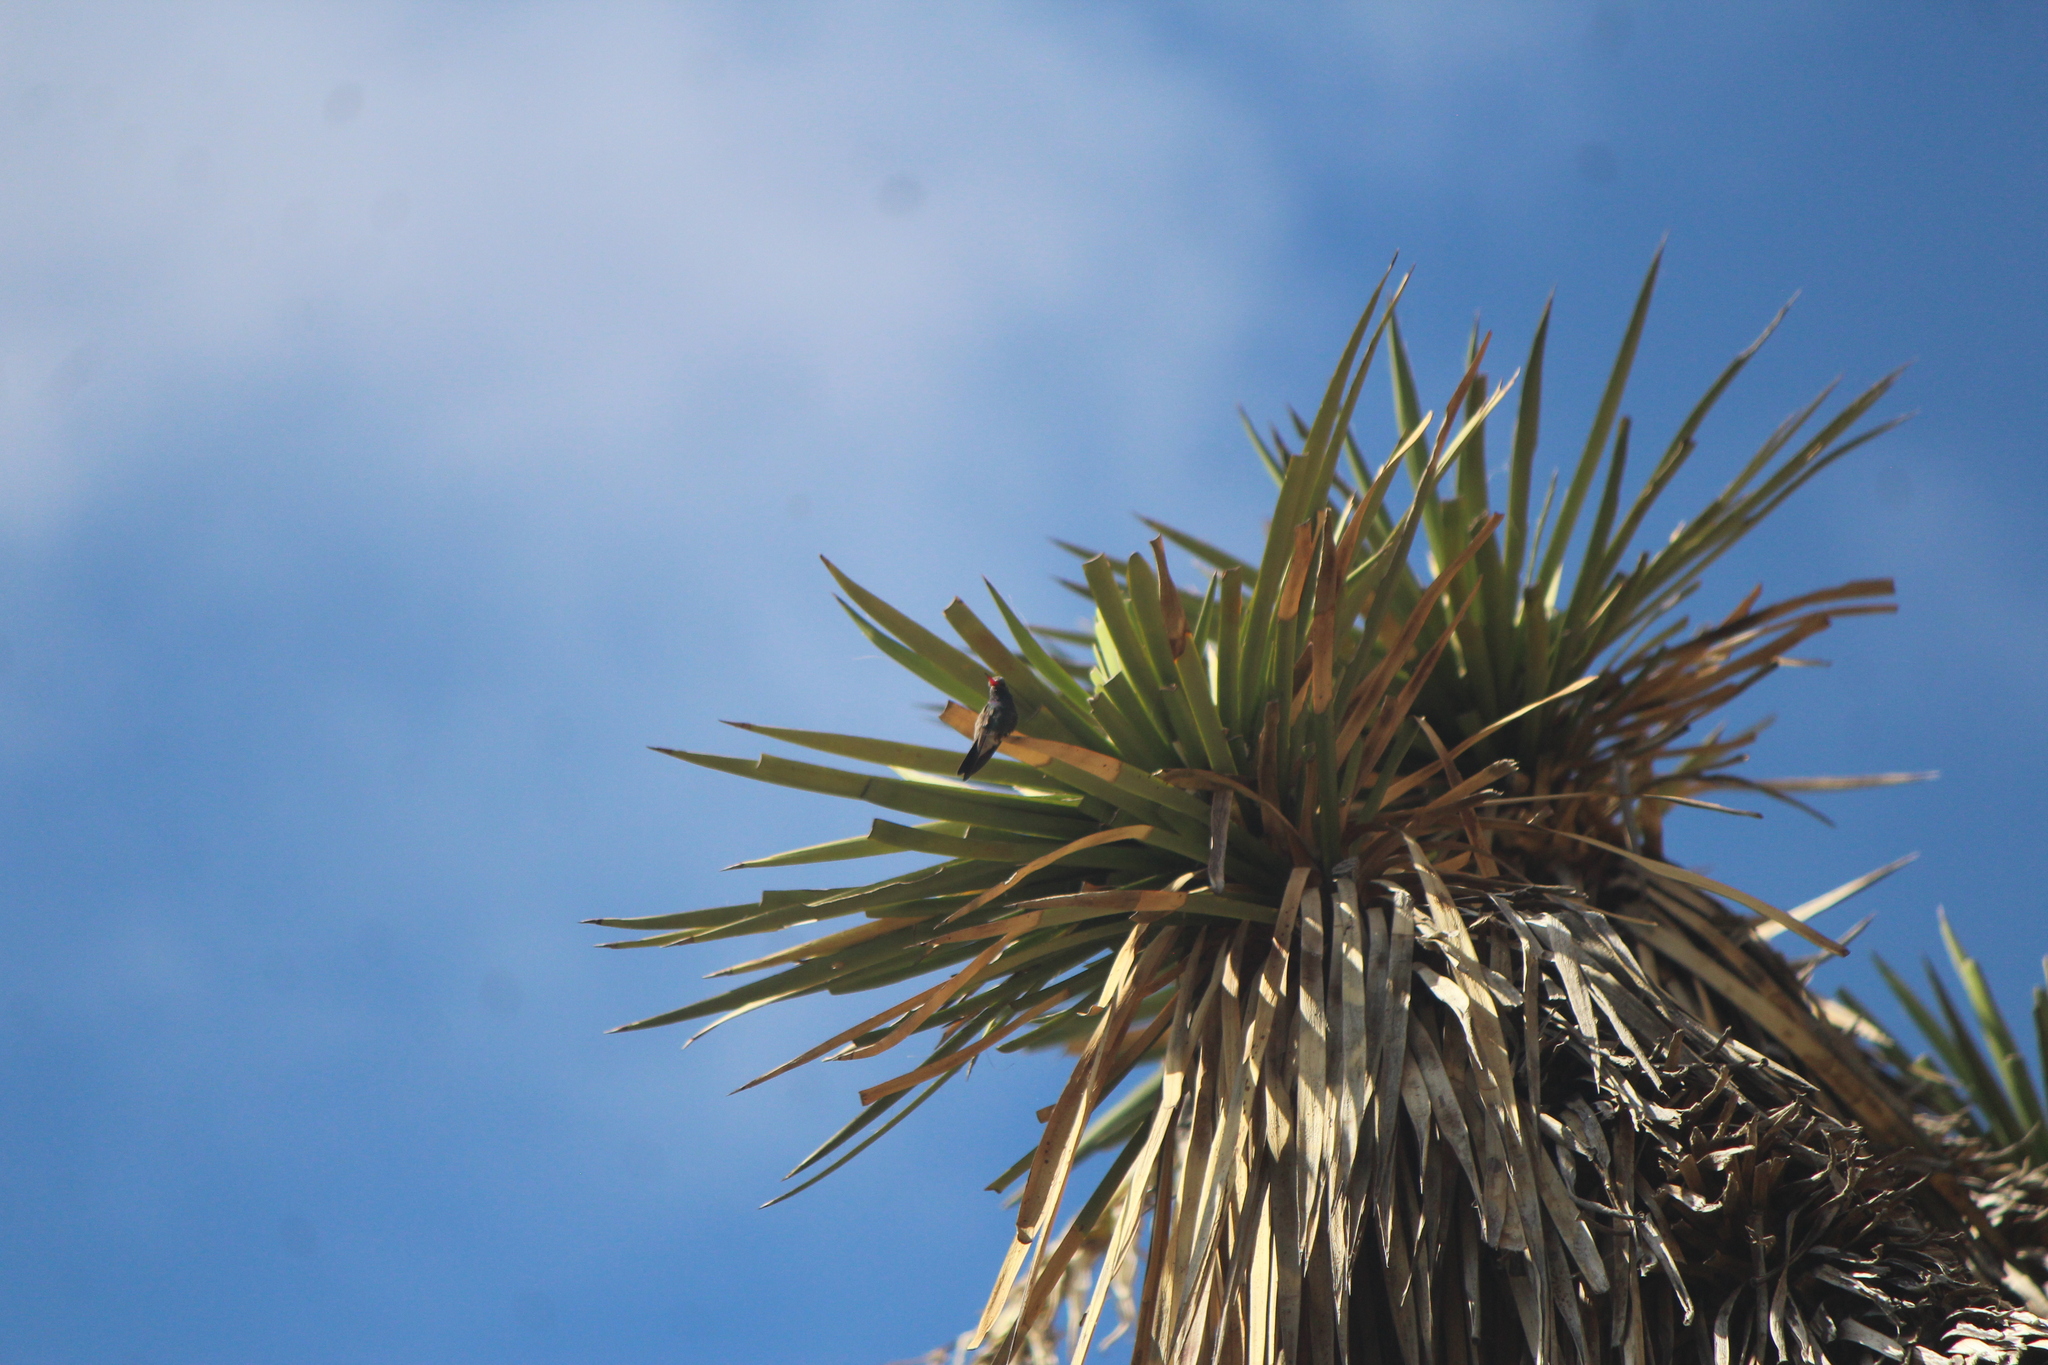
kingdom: Animalia
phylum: Chordata
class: Aves
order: Apodiformes
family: Trochilidae
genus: Cynanthus
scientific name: Cynanthus latirostris
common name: Broad-billed hummingbird
